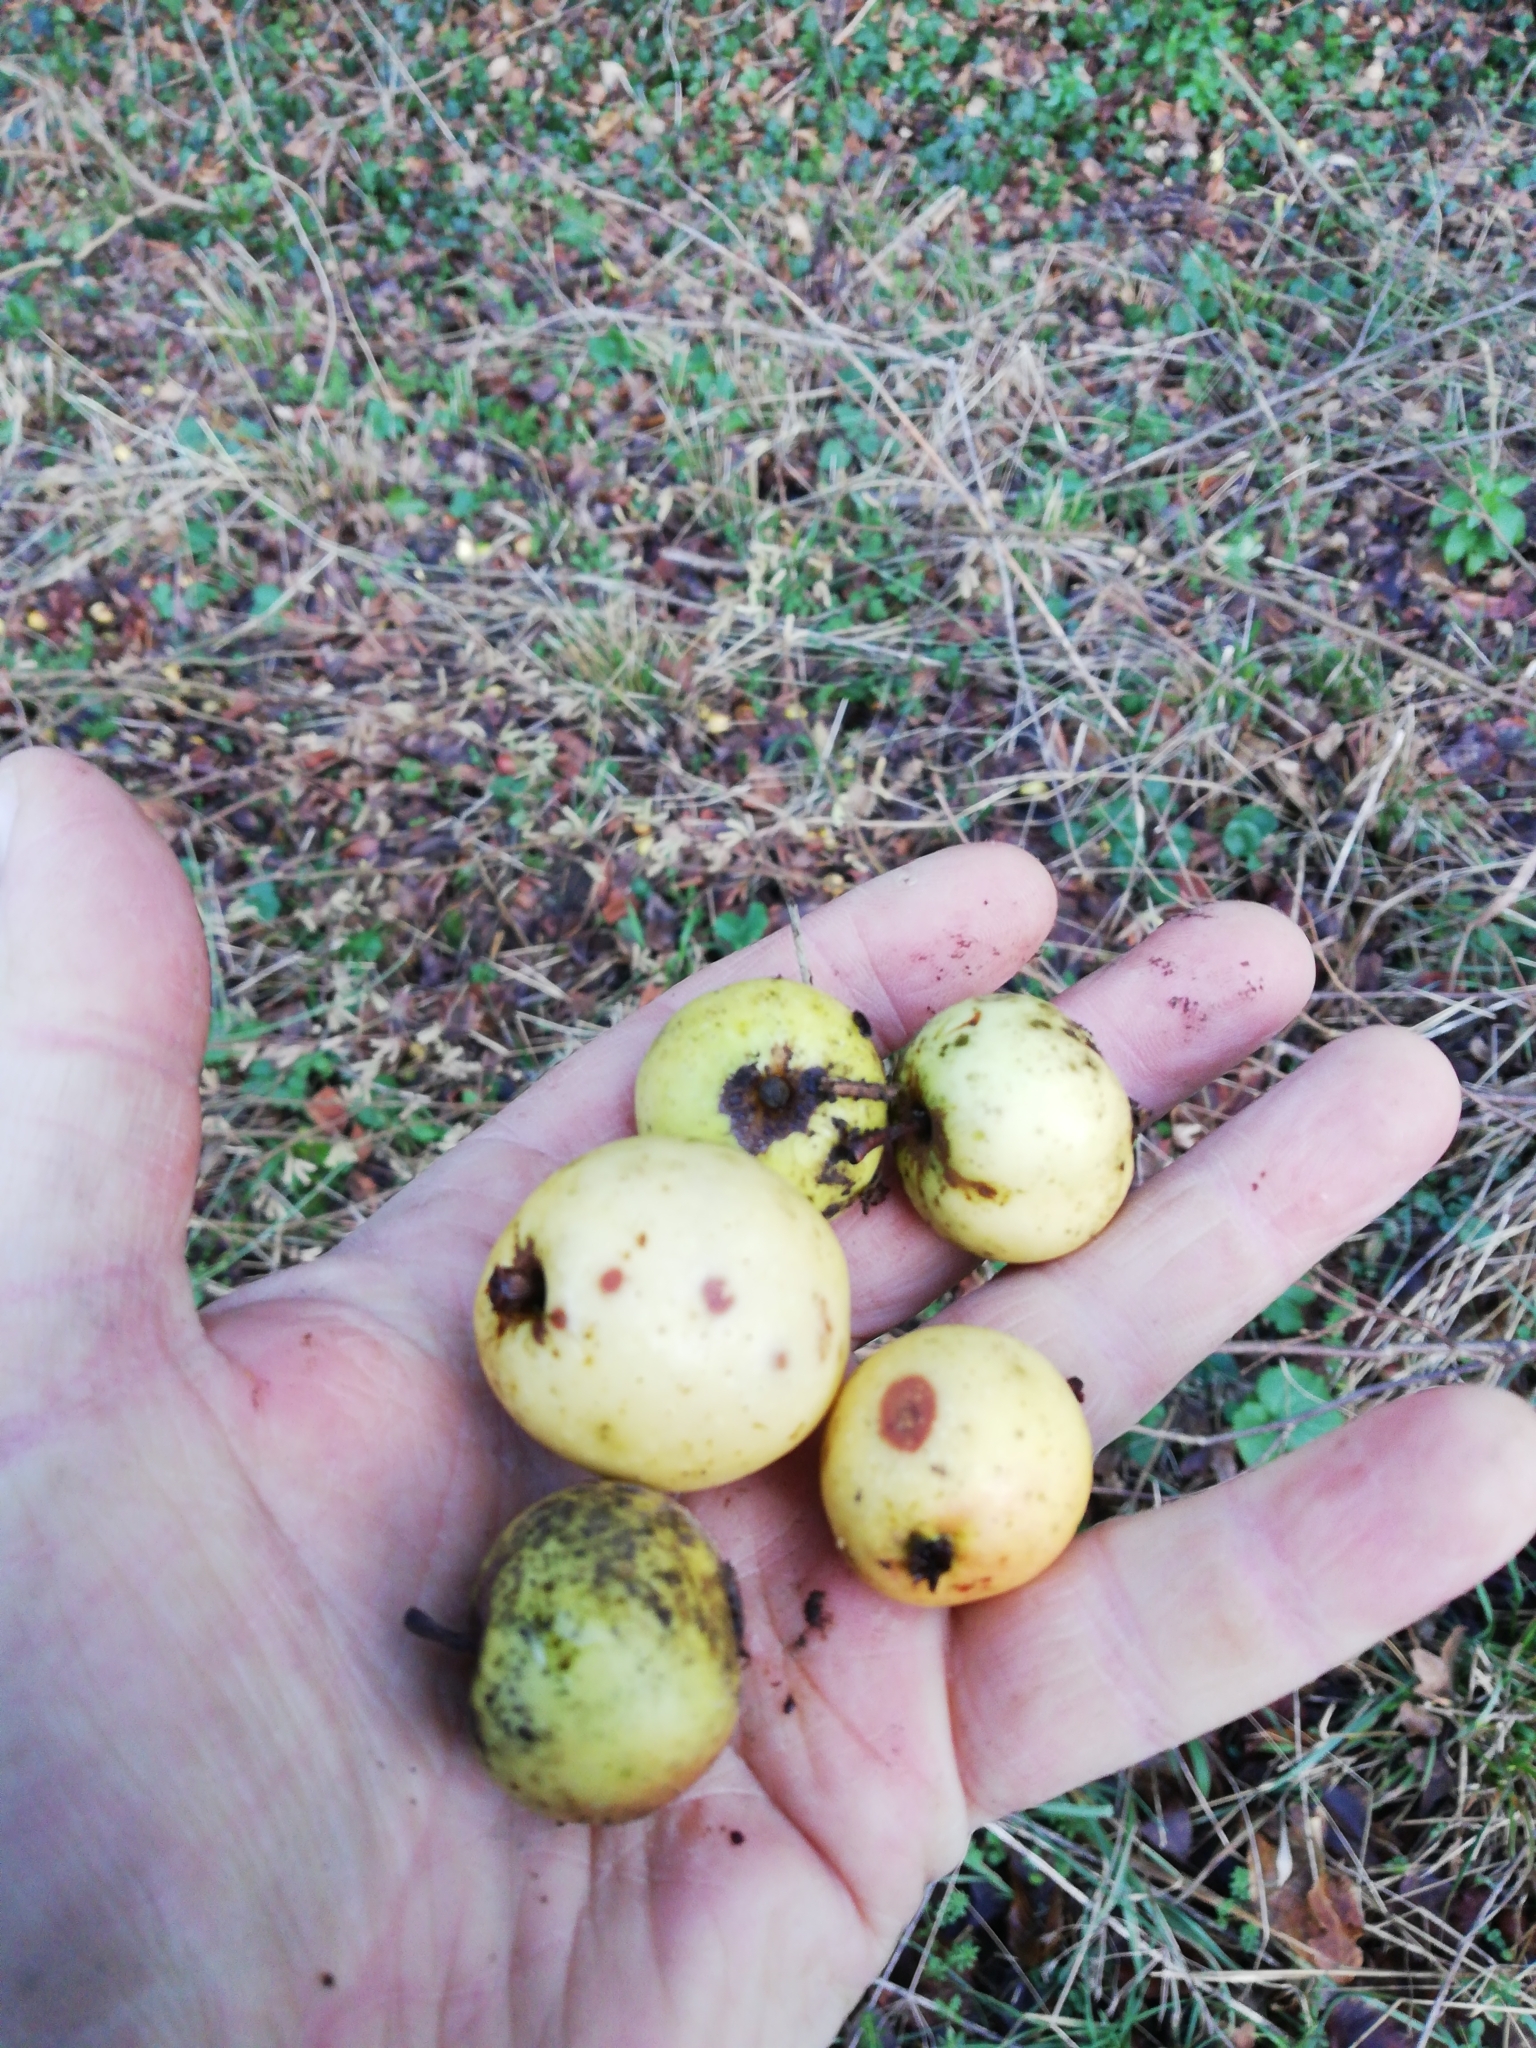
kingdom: Plantae
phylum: Tracheophyta
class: Magnoliopsida
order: Rosales
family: Rosaceae
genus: Malus
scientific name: Malus sylvestris
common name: Crab apple
